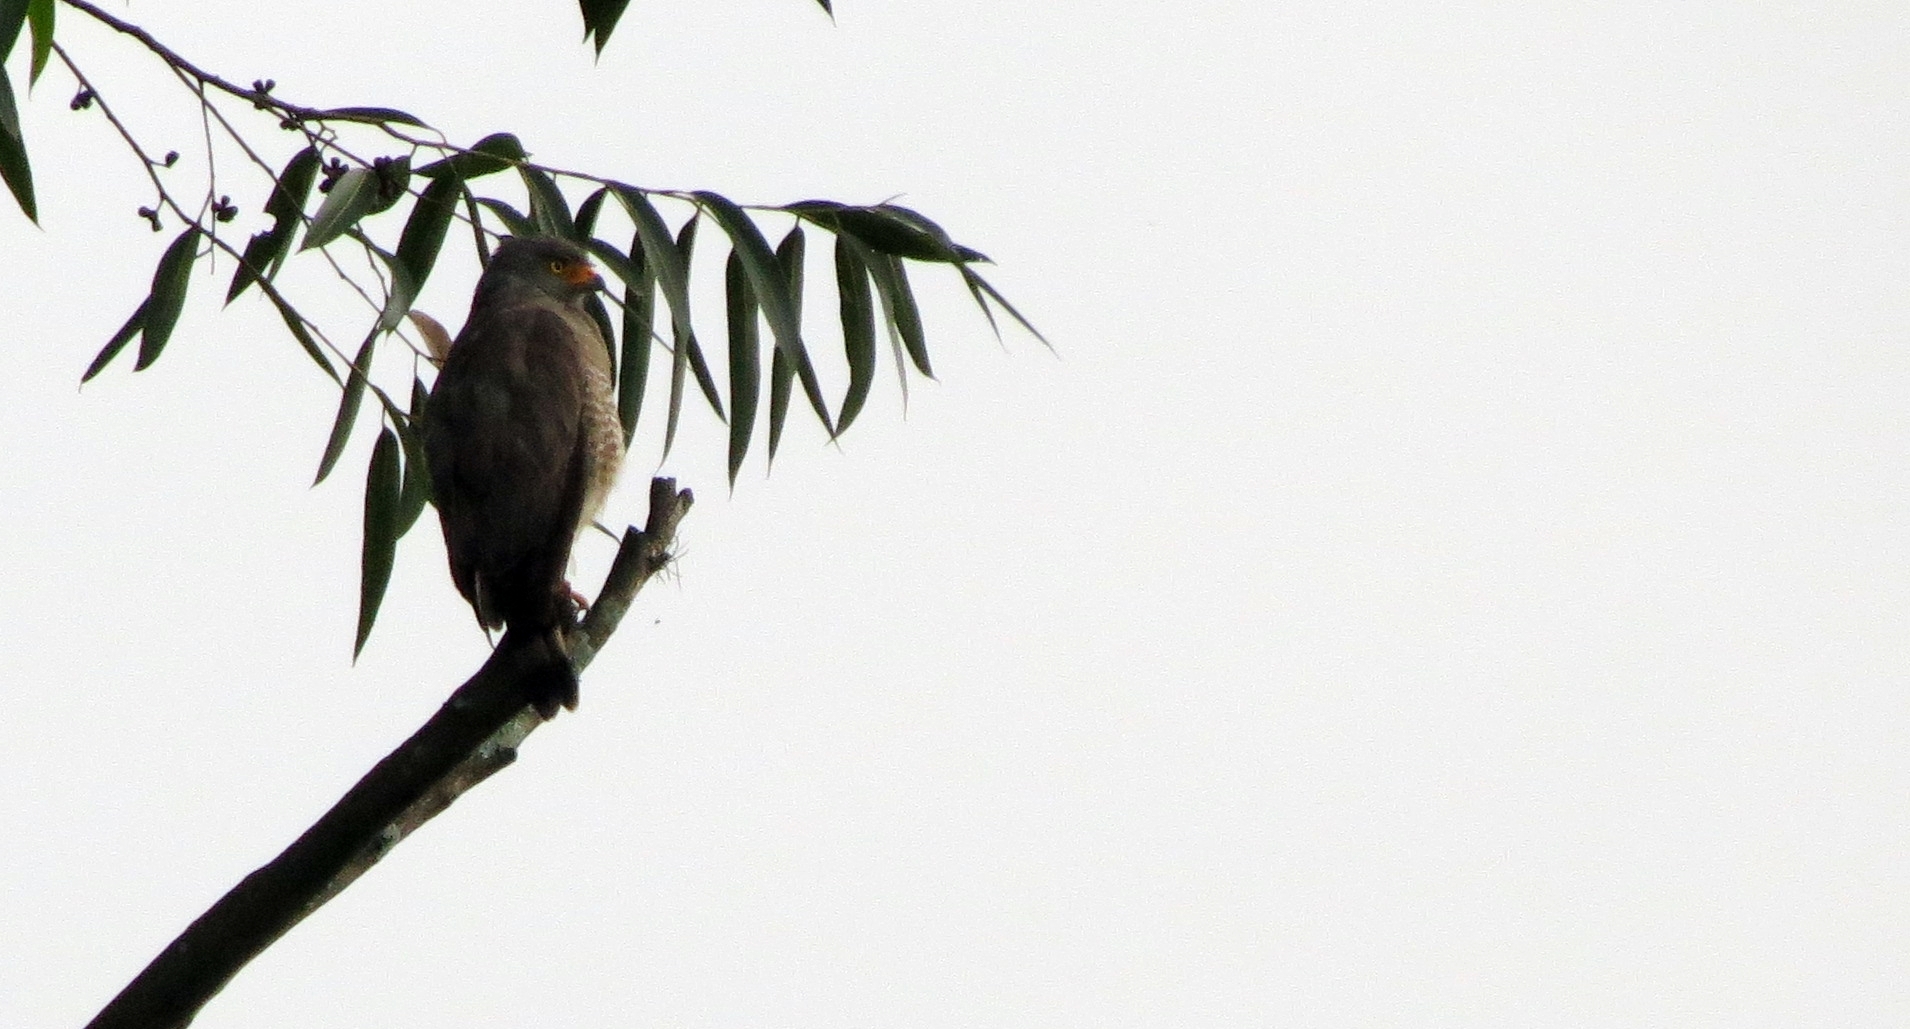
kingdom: Animalia
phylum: Chordata
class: Aves
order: Accipitriformes
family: Accipitridae
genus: Rupornis
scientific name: Rupornis magnirostris
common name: Roadside hawk
